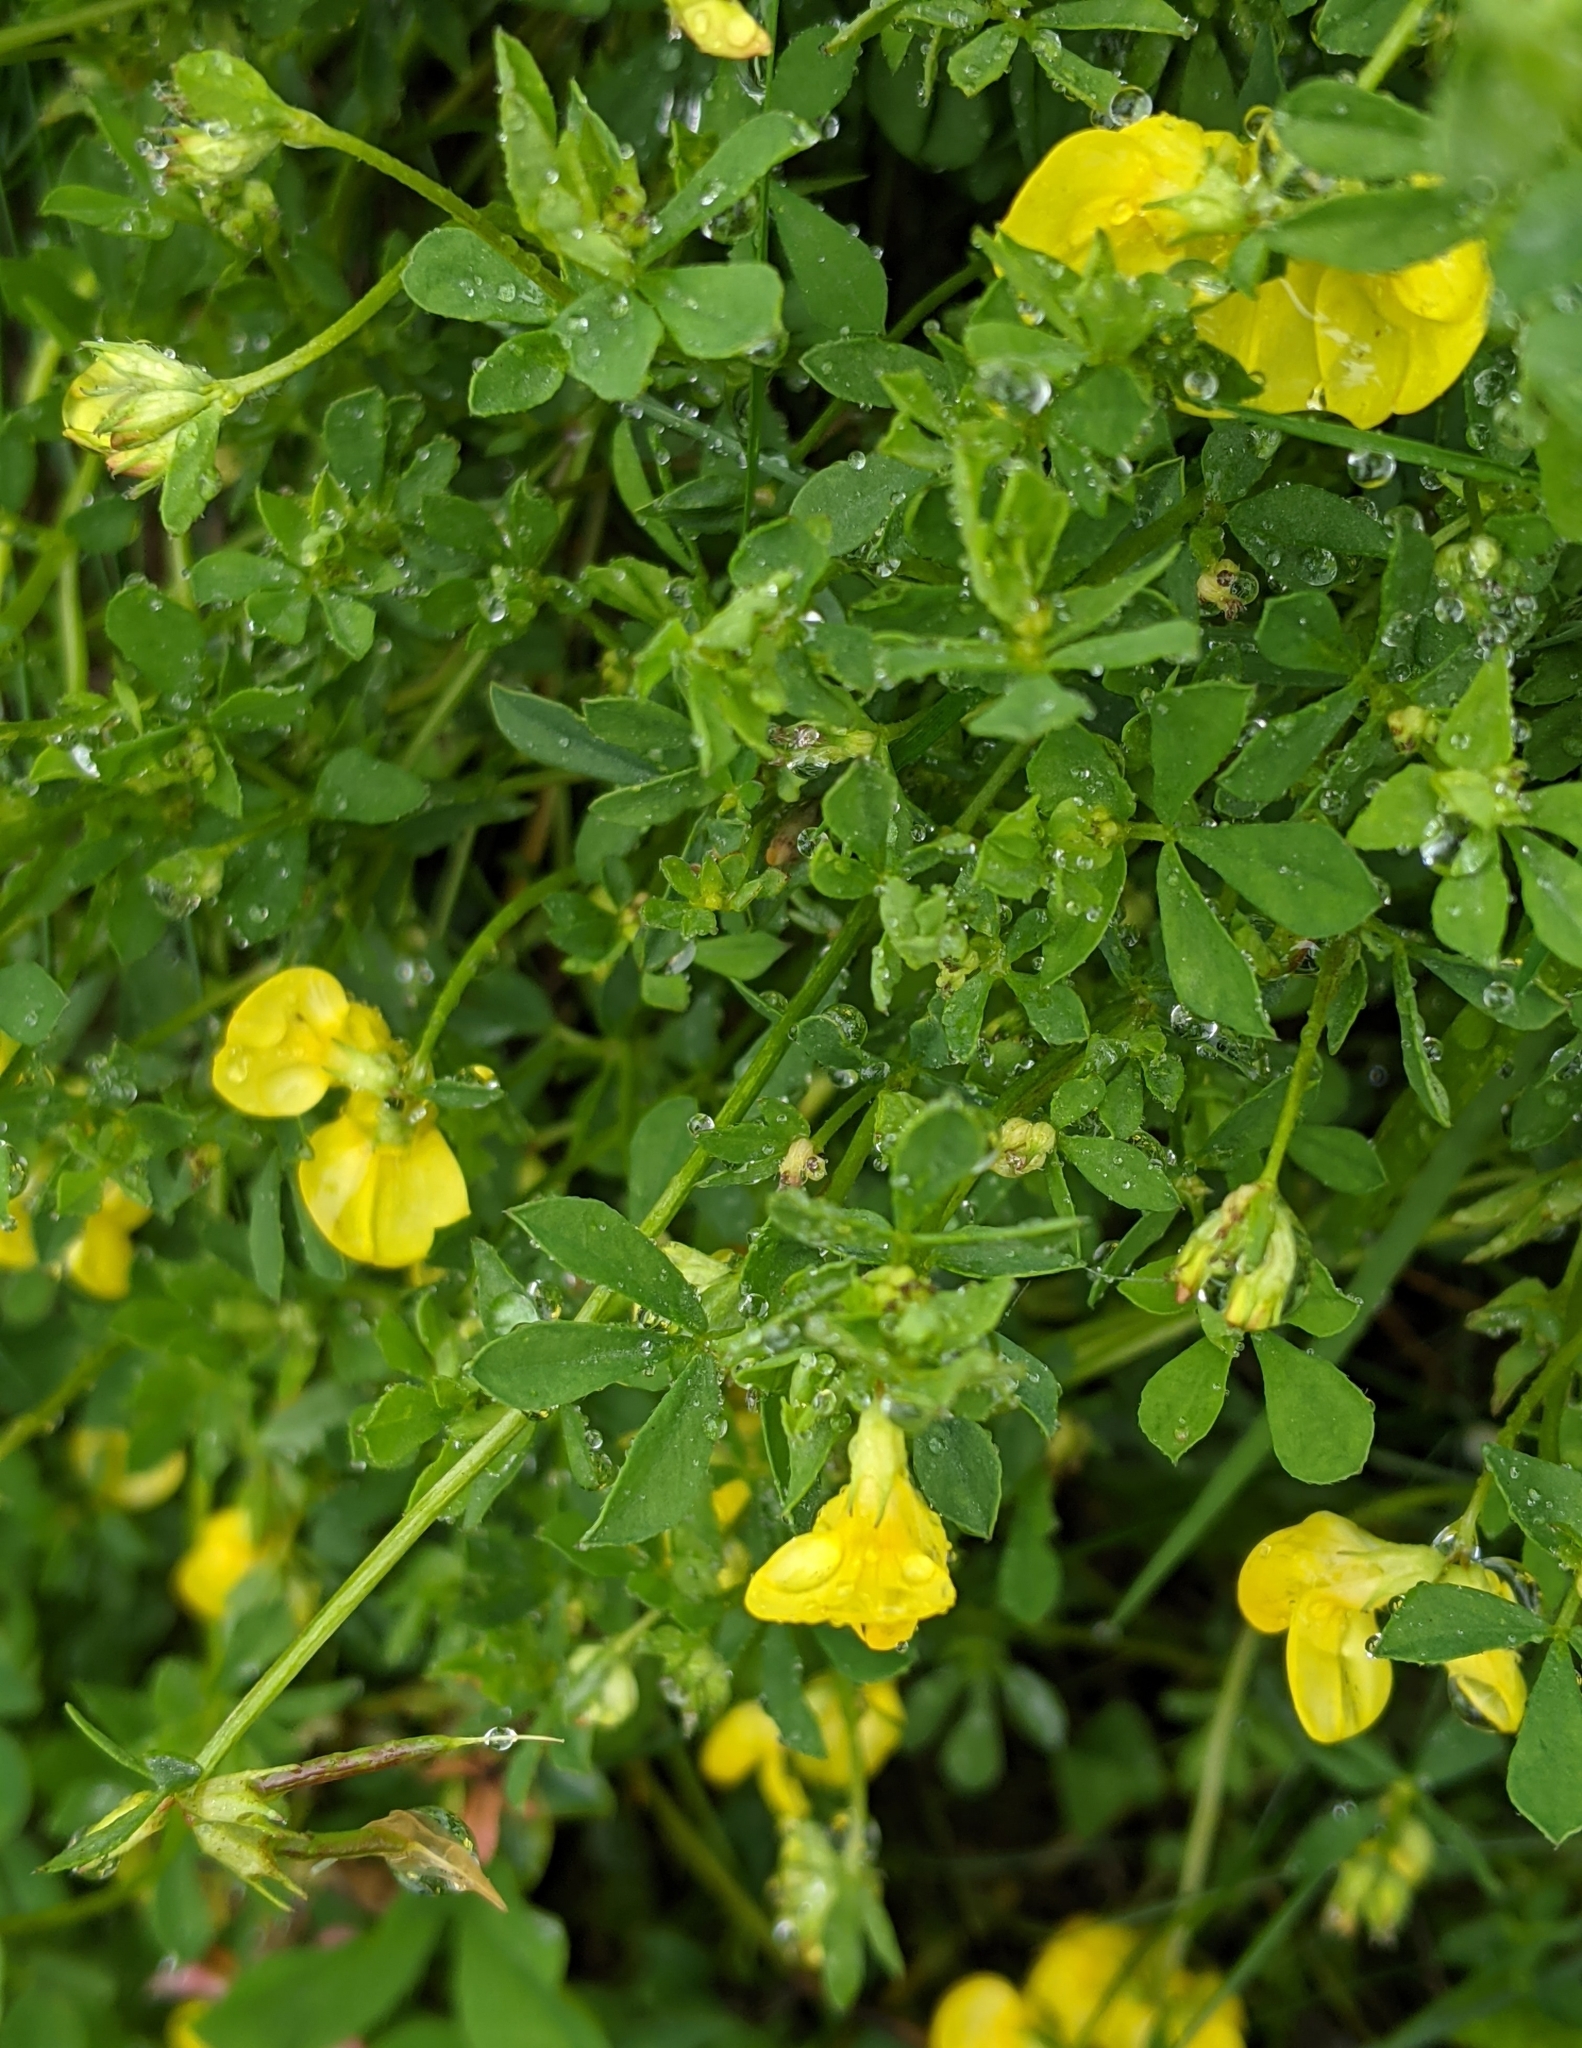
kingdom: Plantae
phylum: Tracheophyta
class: Magnoliopsida
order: Fabales
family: Fabaceae
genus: Lotus
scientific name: Lotus corniculatus
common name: Common bird's-foot-trefoil
